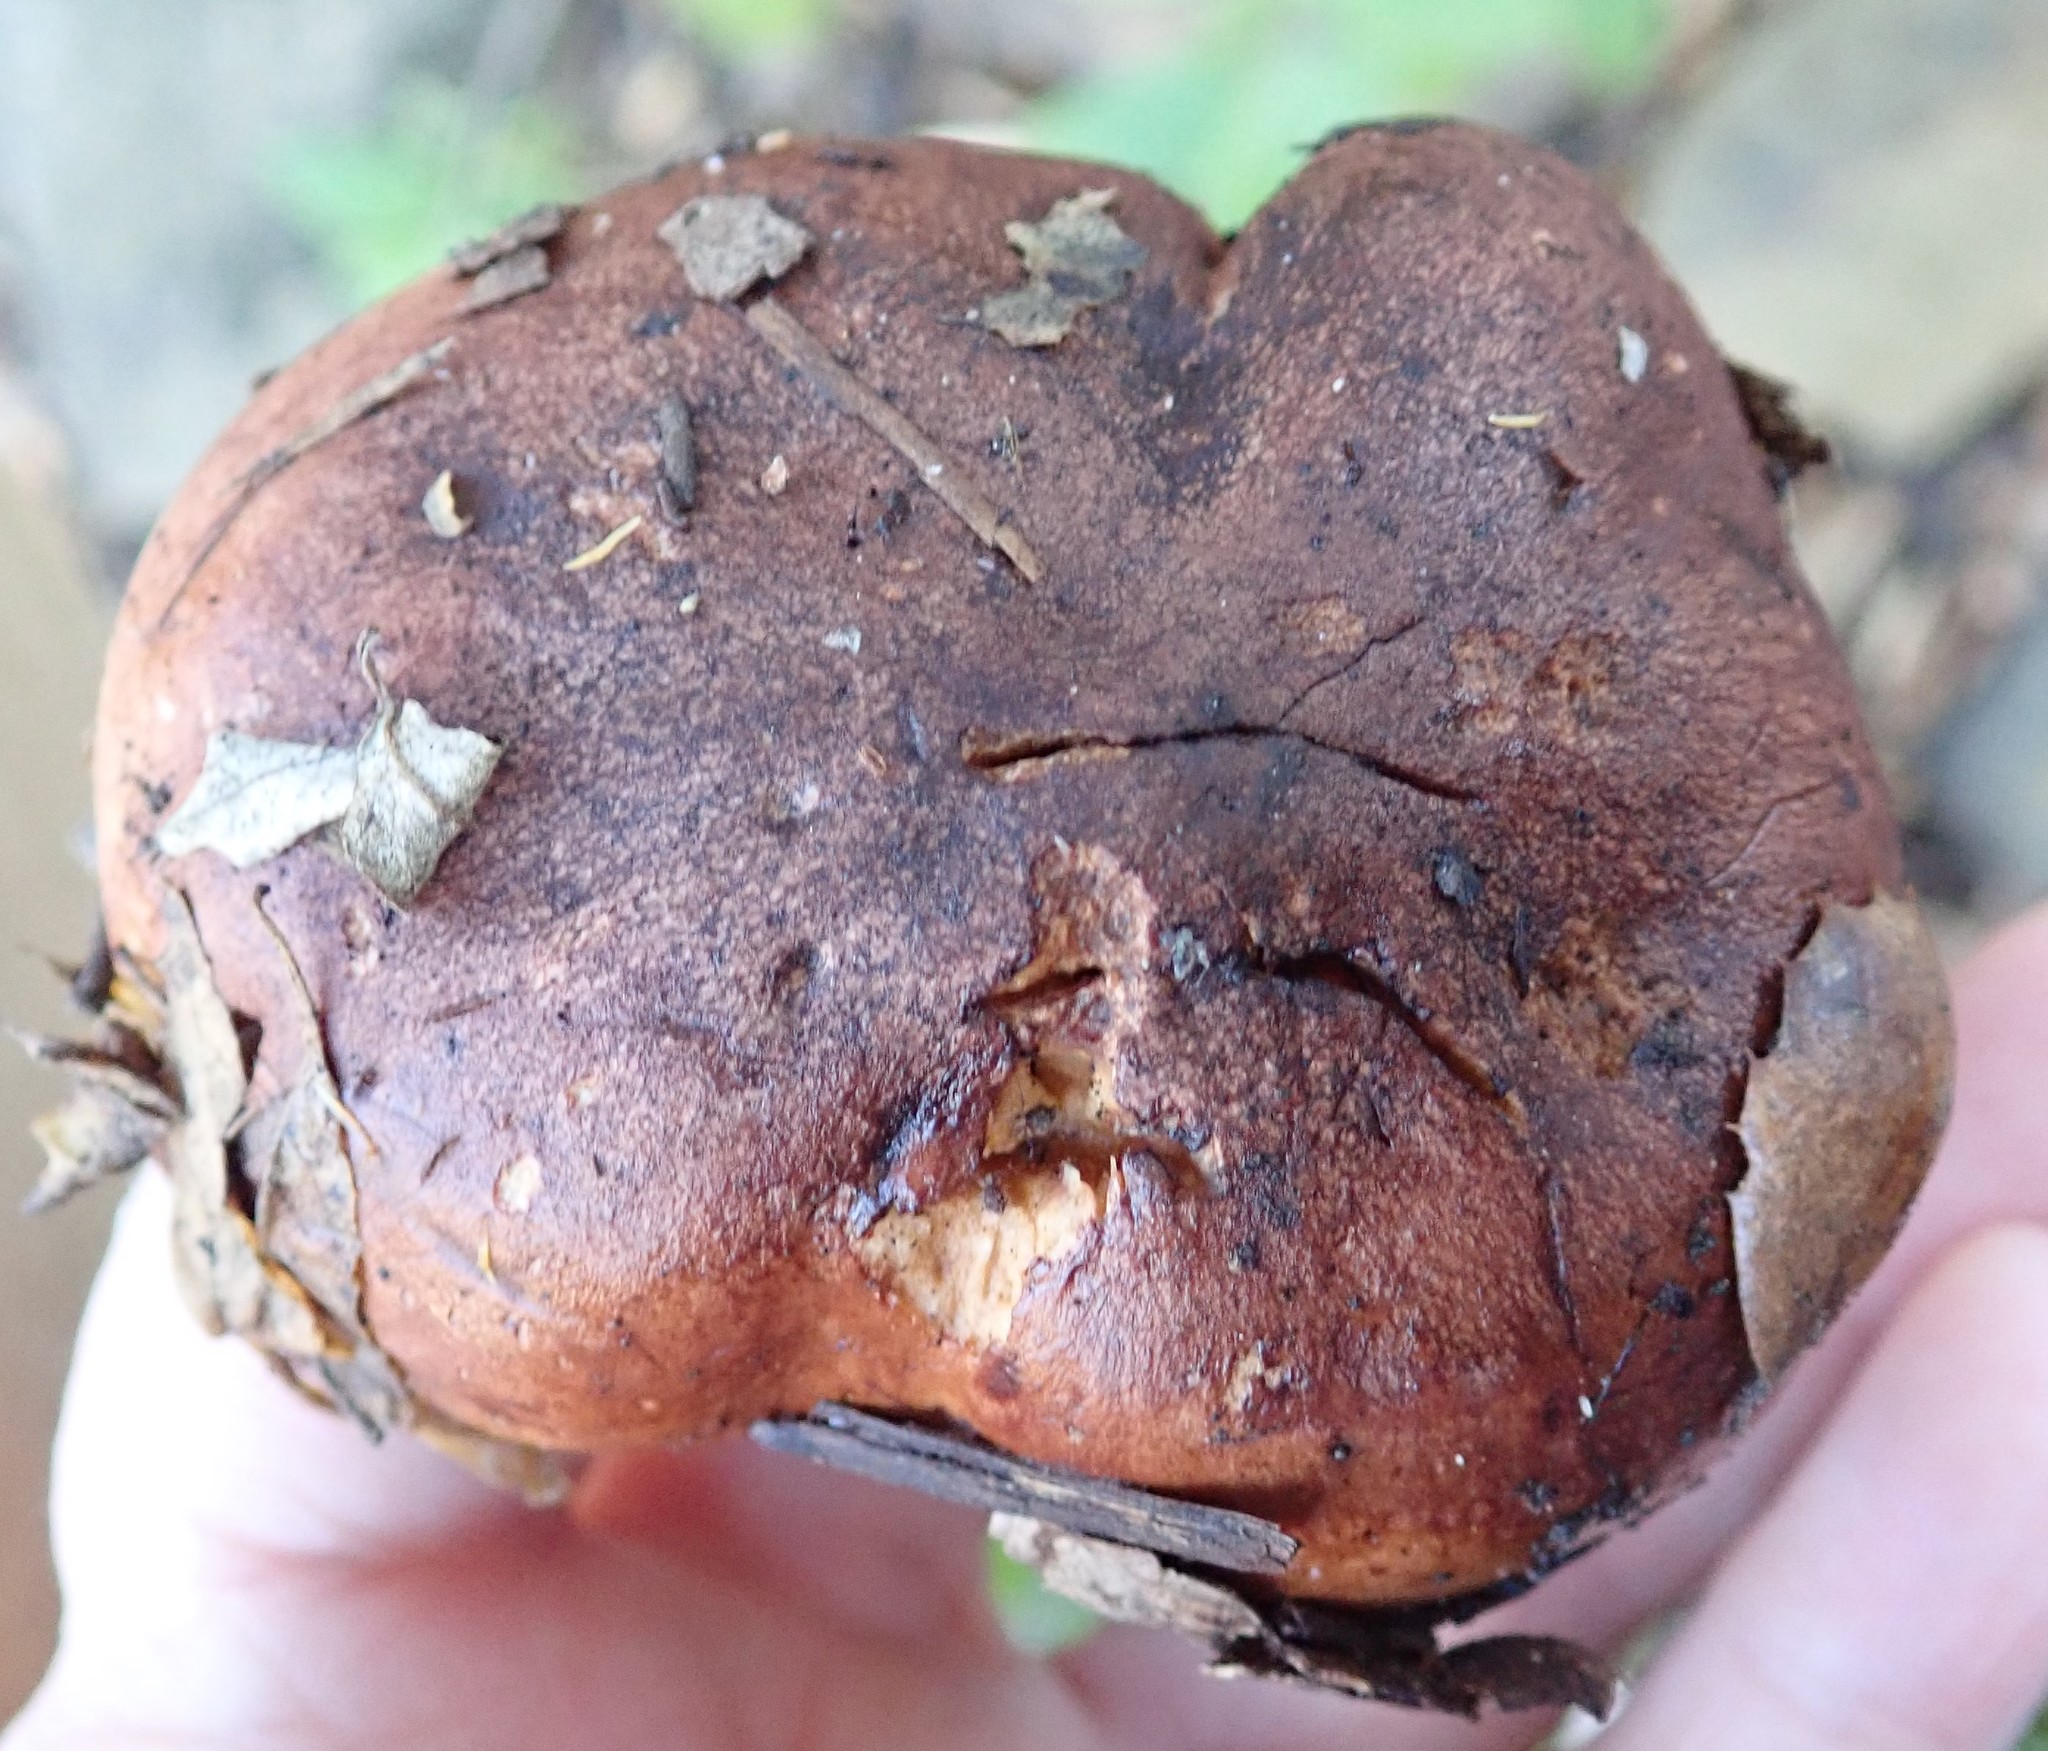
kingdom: Fungi
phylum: Basidiomycota
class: Agaricomycetes
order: Agaricales
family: Tricholomataceae
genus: Melanoleuca
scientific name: Melanoleuca dryophila
